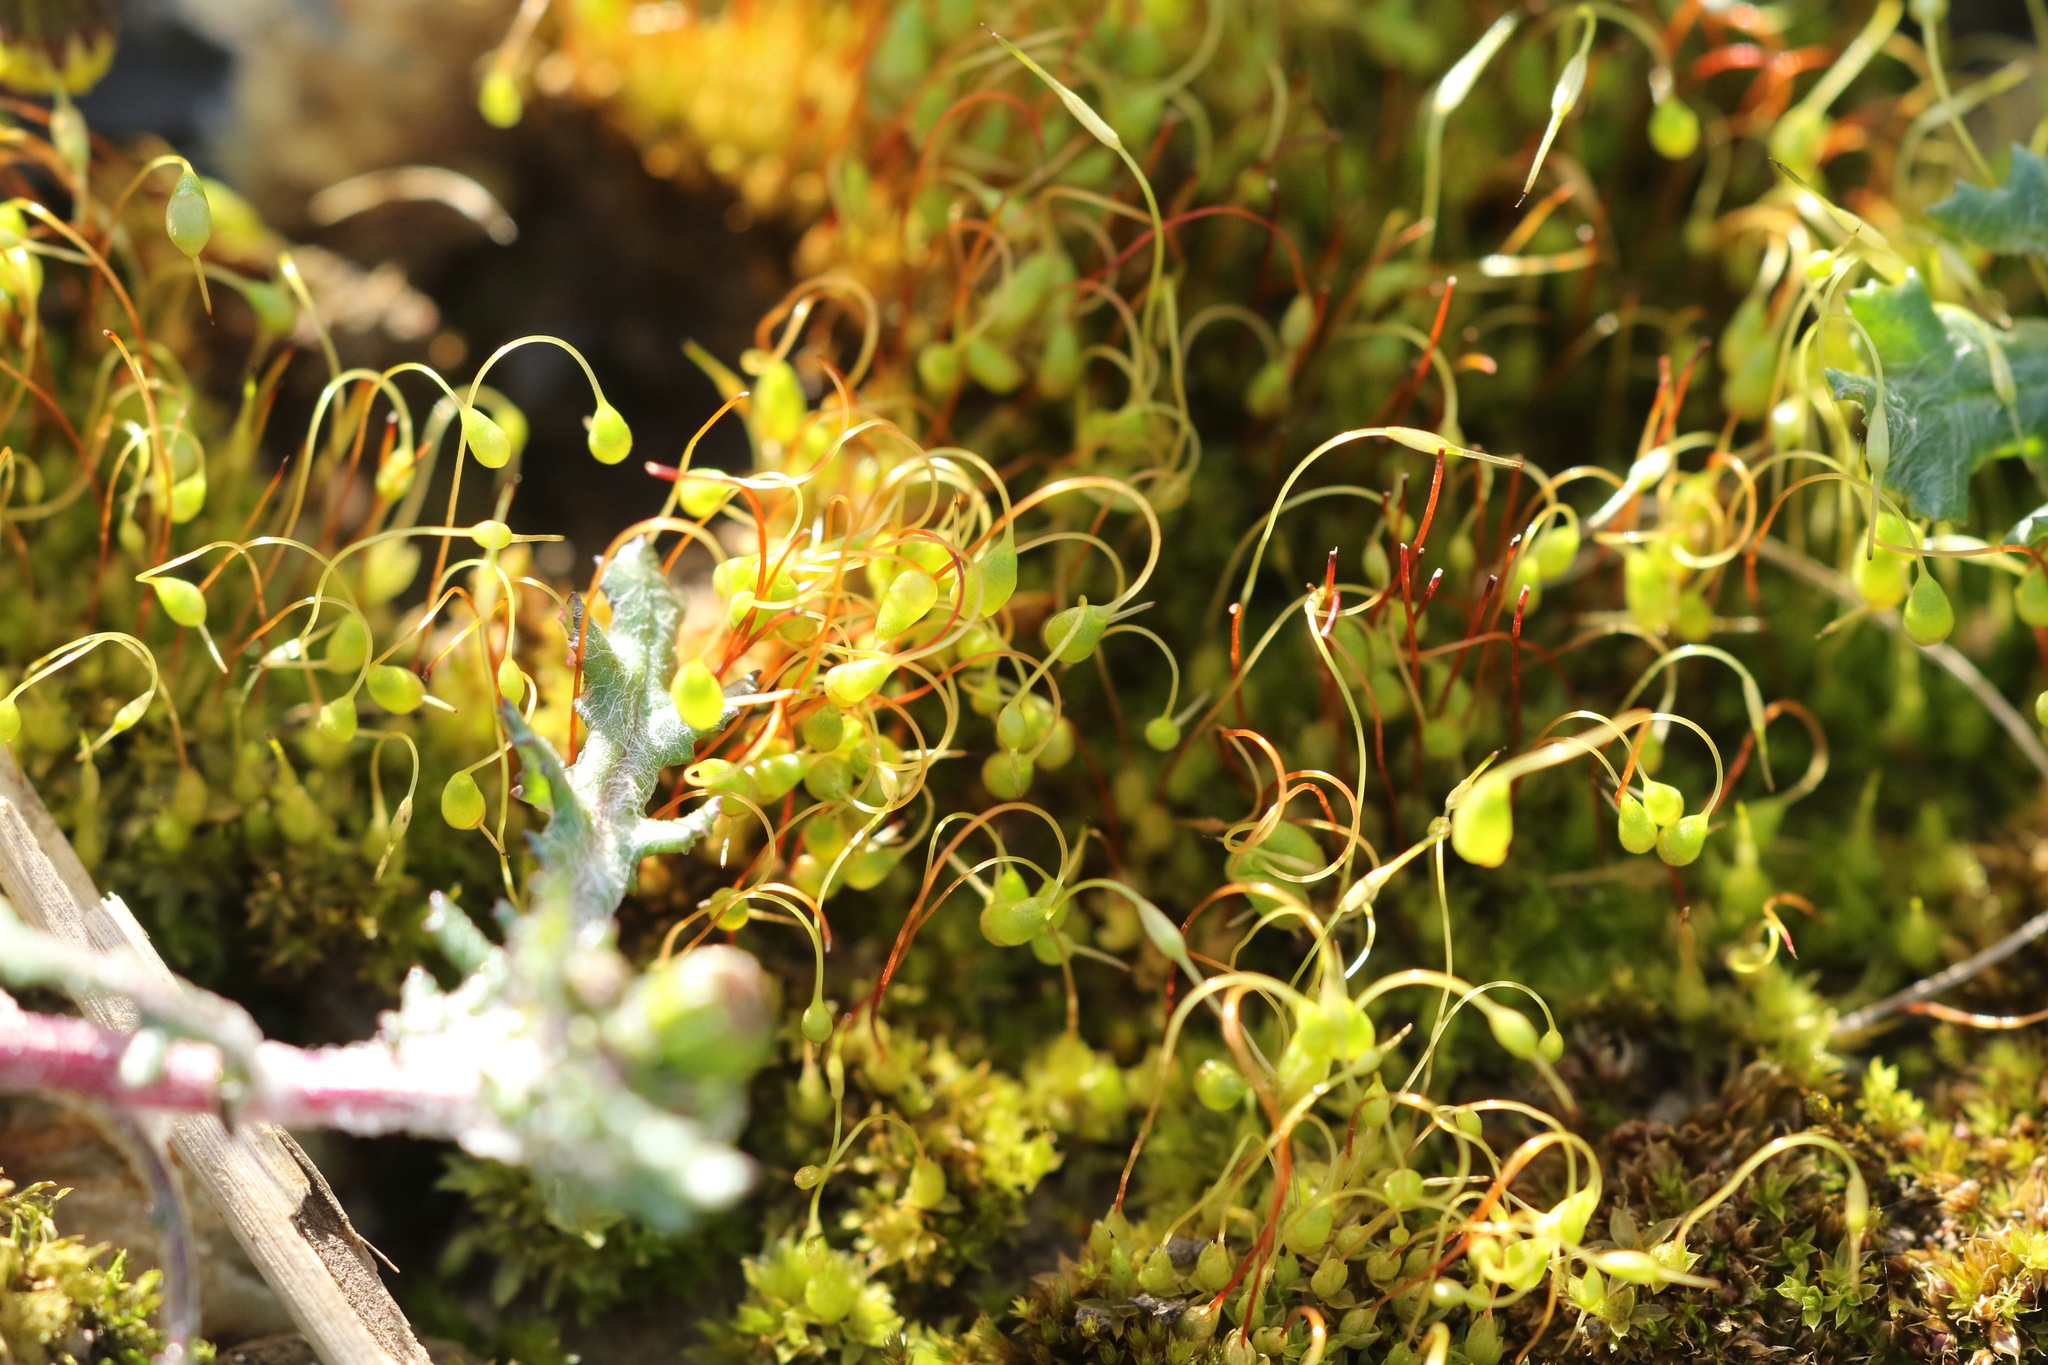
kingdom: Plantae
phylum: Bryophyta
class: Bryopsida
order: Funariales
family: Funariaceae
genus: Funaria
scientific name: Funaria hygrometrica
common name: Common cord moss
